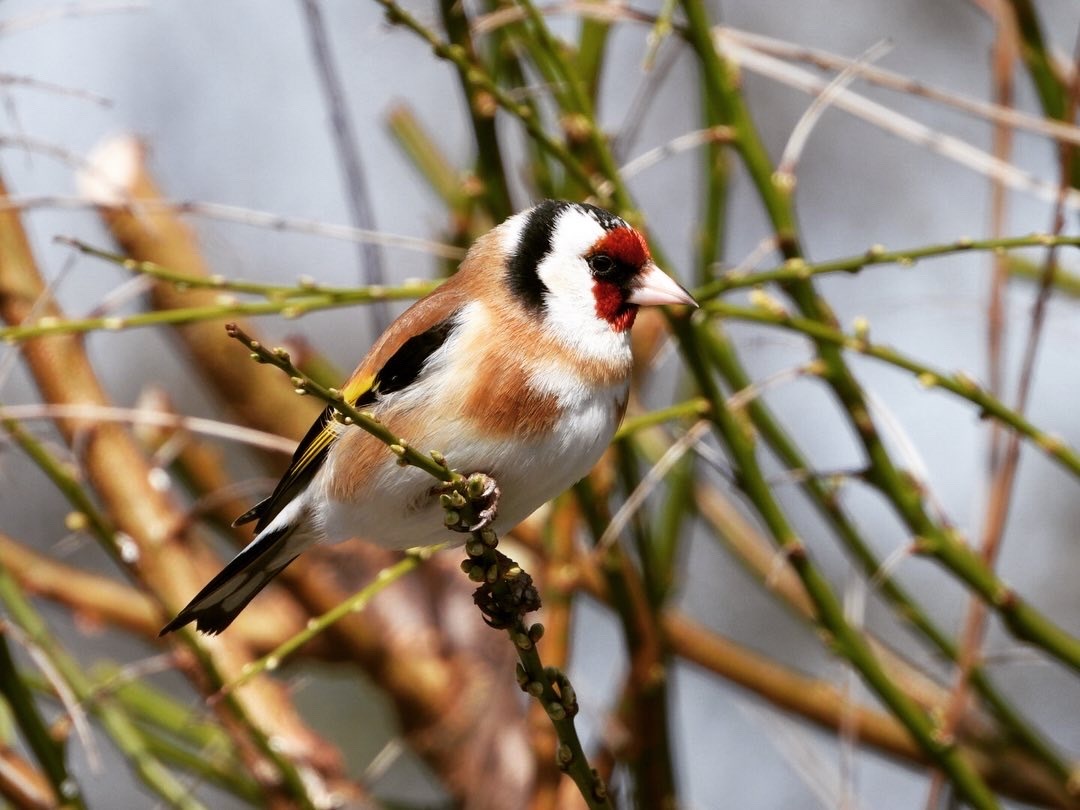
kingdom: Animalia
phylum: Chordata
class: Aves
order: Passeriformes
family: Fringillidae
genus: Carduelis
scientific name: Carduelis carduelis
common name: European goldfinch
